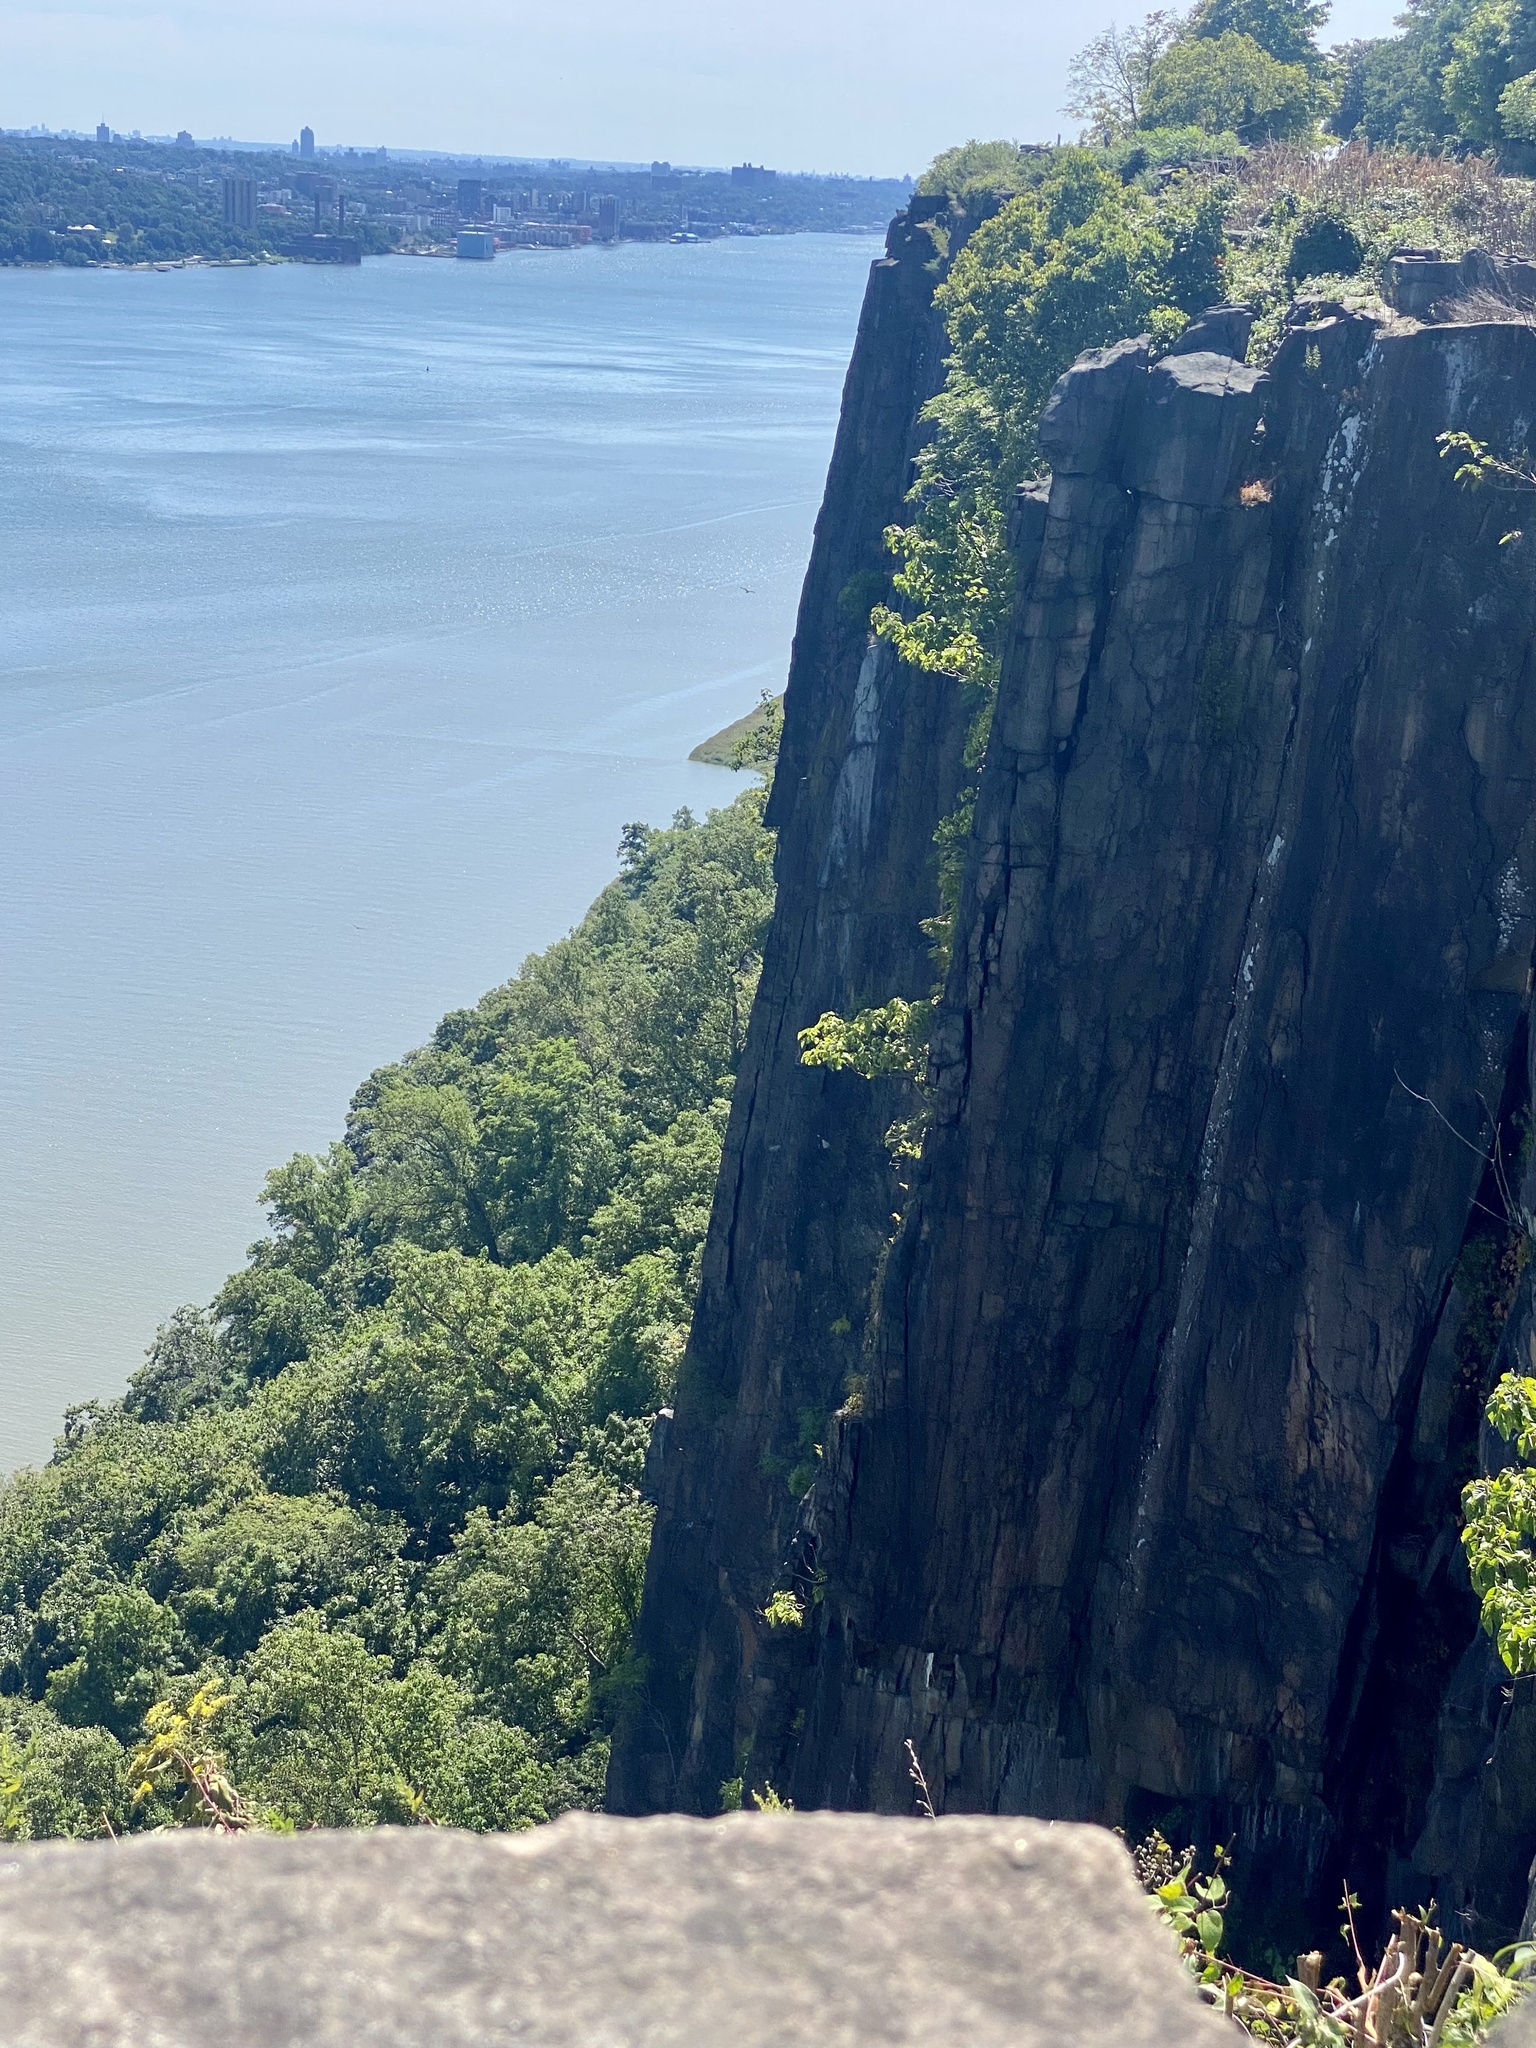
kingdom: Animalia
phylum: Chordata
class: Aves
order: Accipitriformes
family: Cathartidae
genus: Cathartes
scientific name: Cathartes aura
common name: Turkey vulture
